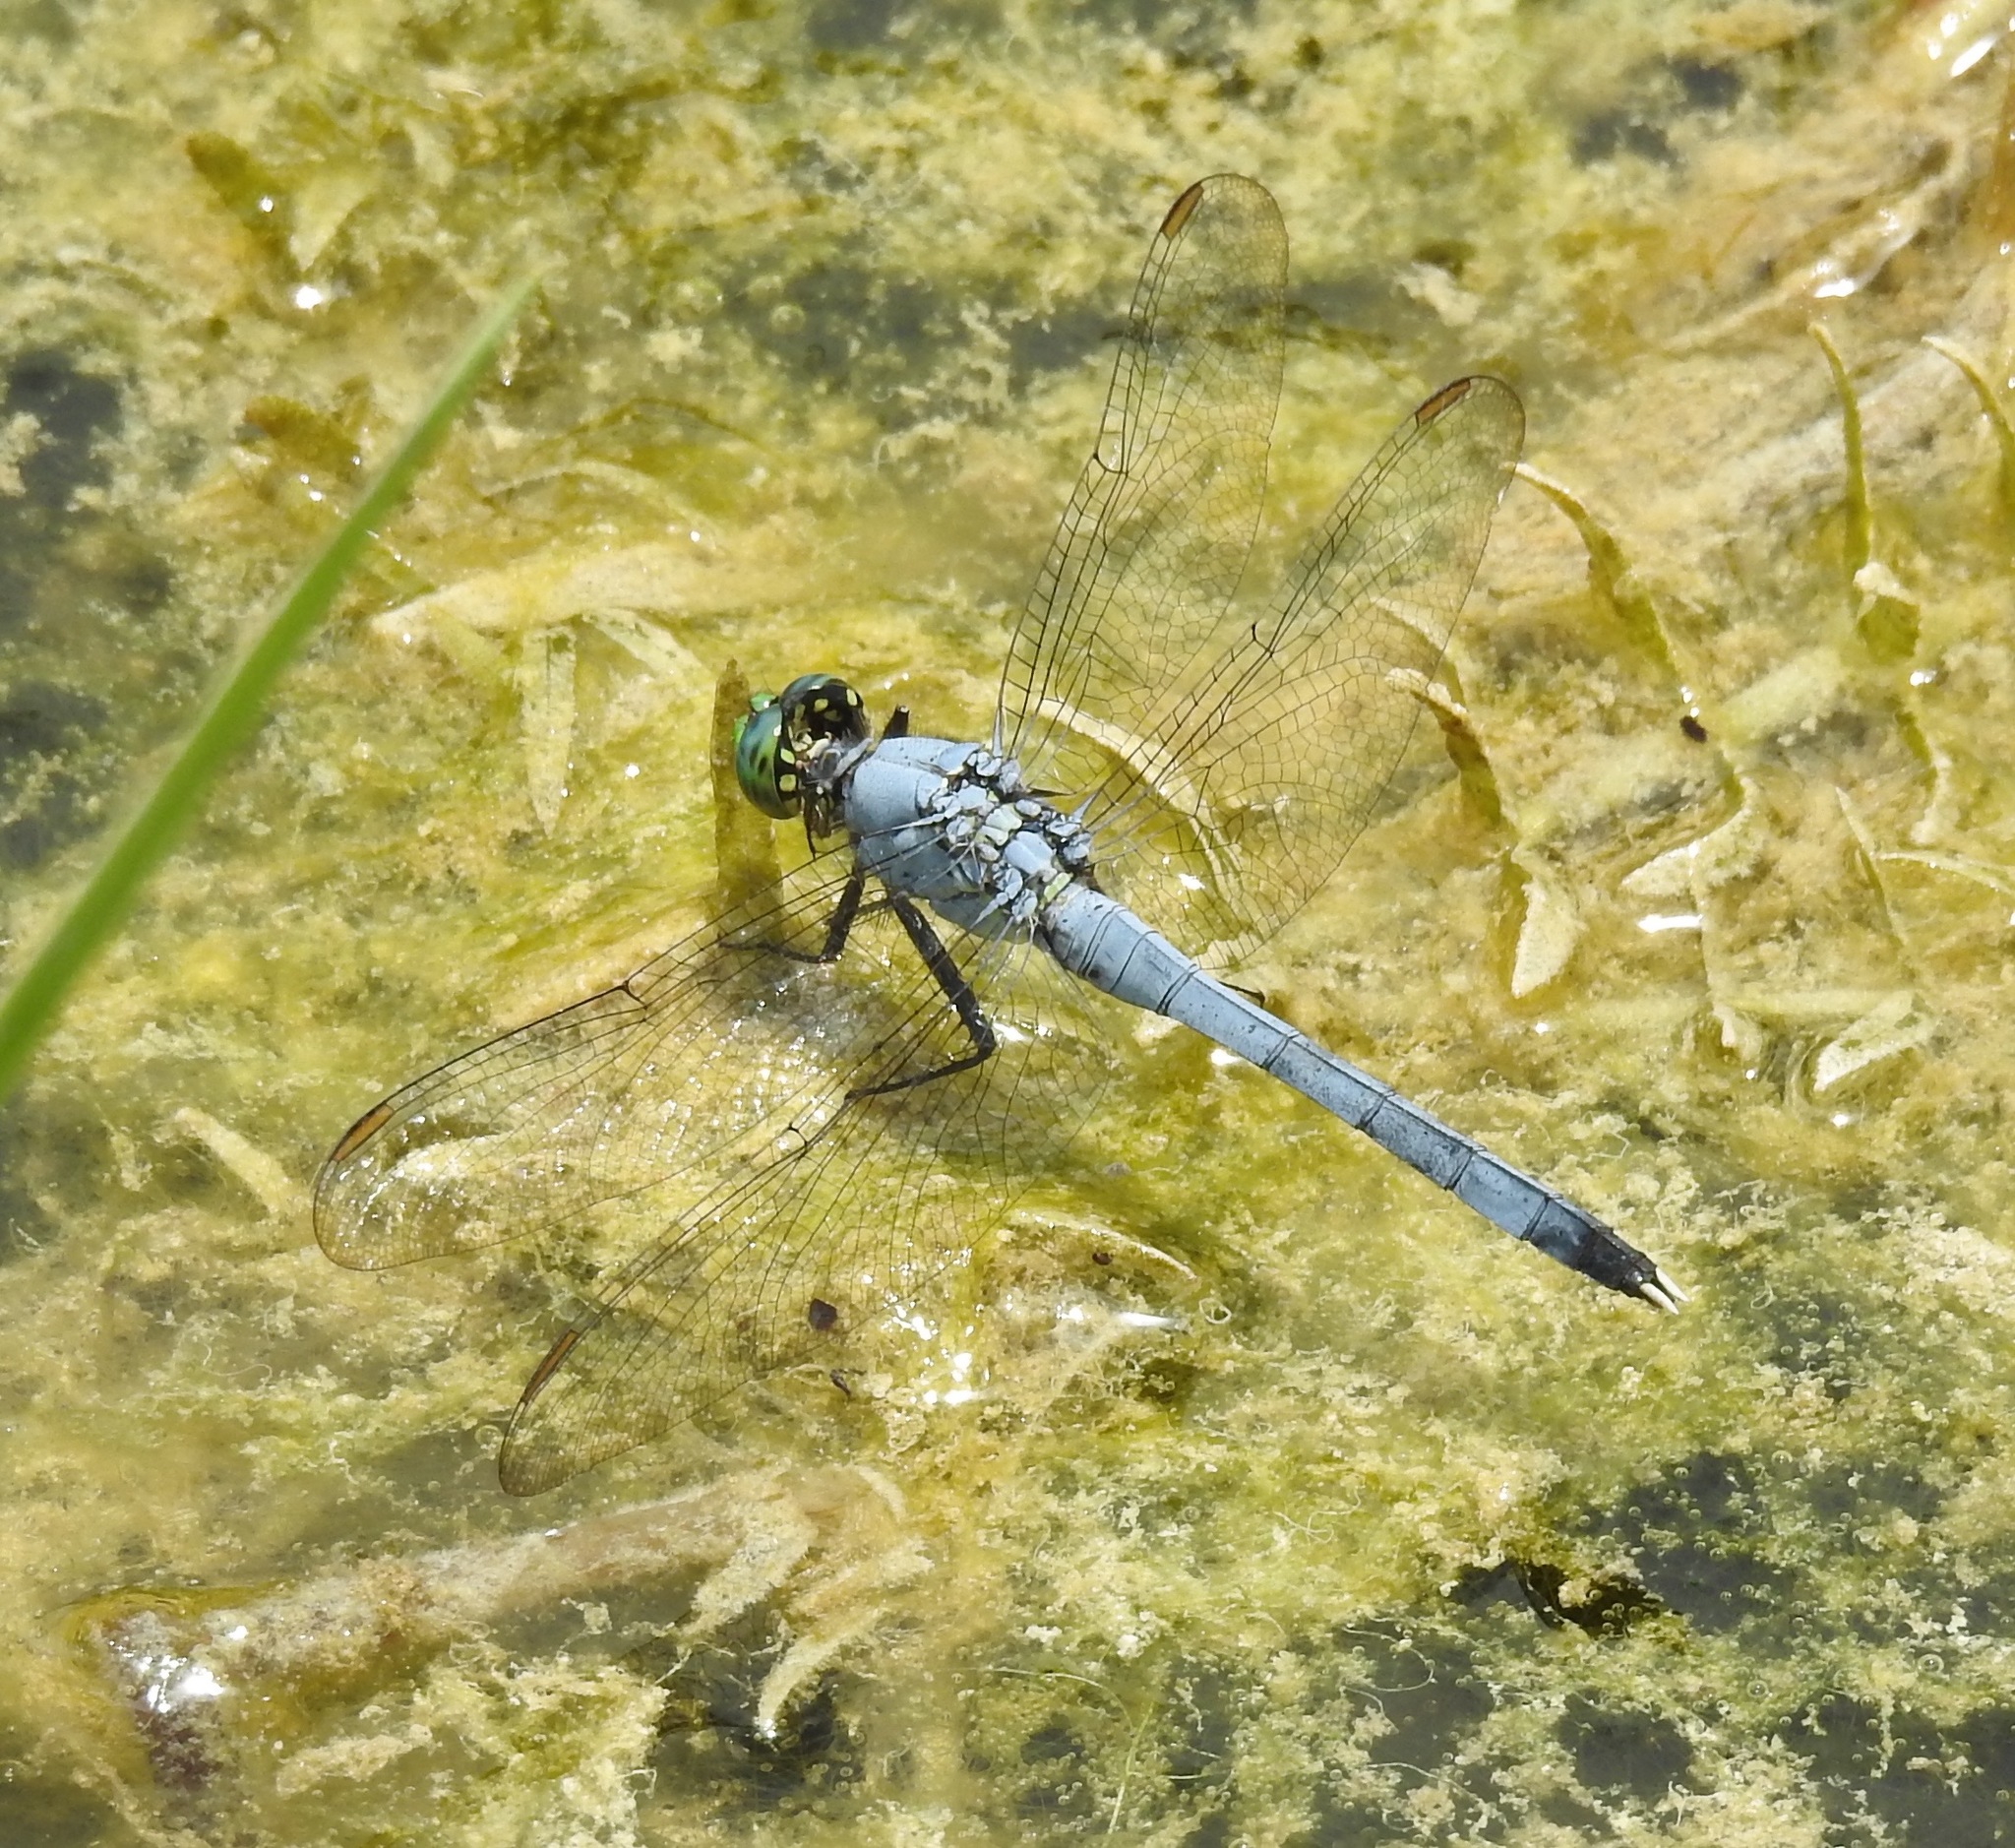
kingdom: Animalia
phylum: Arthropoda
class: Insecta
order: Odonata
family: Libellulidae
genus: Erythemis
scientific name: Erythemis simplicicollis
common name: Eastern pondhawk
